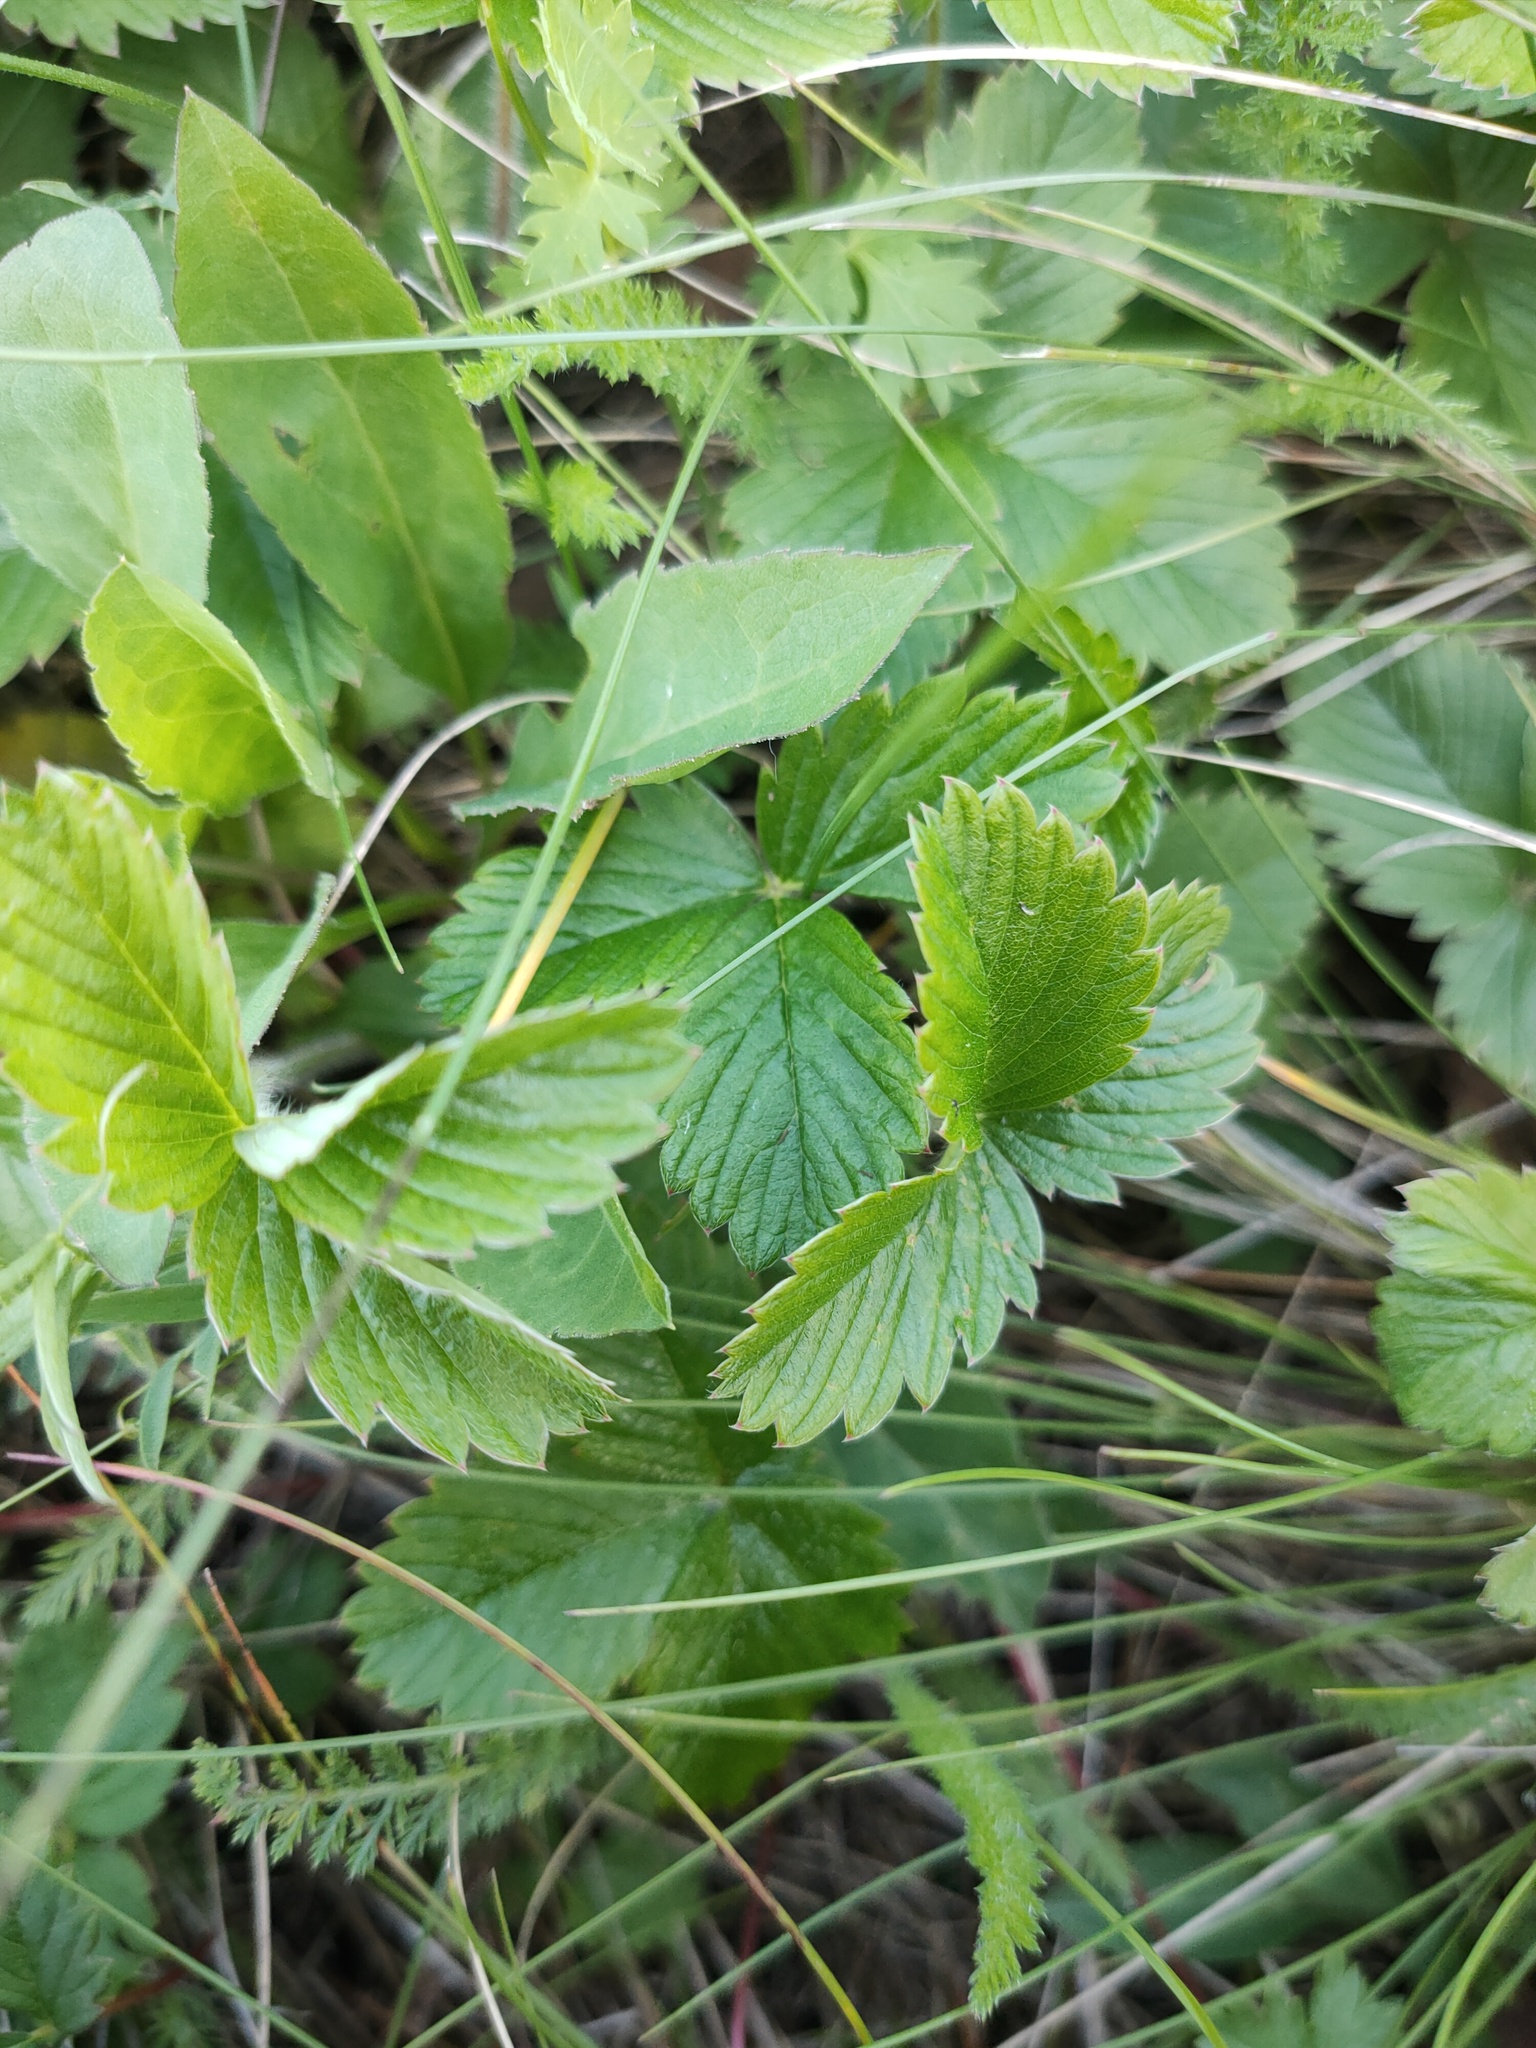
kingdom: Plantae
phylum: Tracheophyta
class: Magnoliopsida
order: Rosales
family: Rosaceae
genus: Fragaria
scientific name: Fragaria viridis
